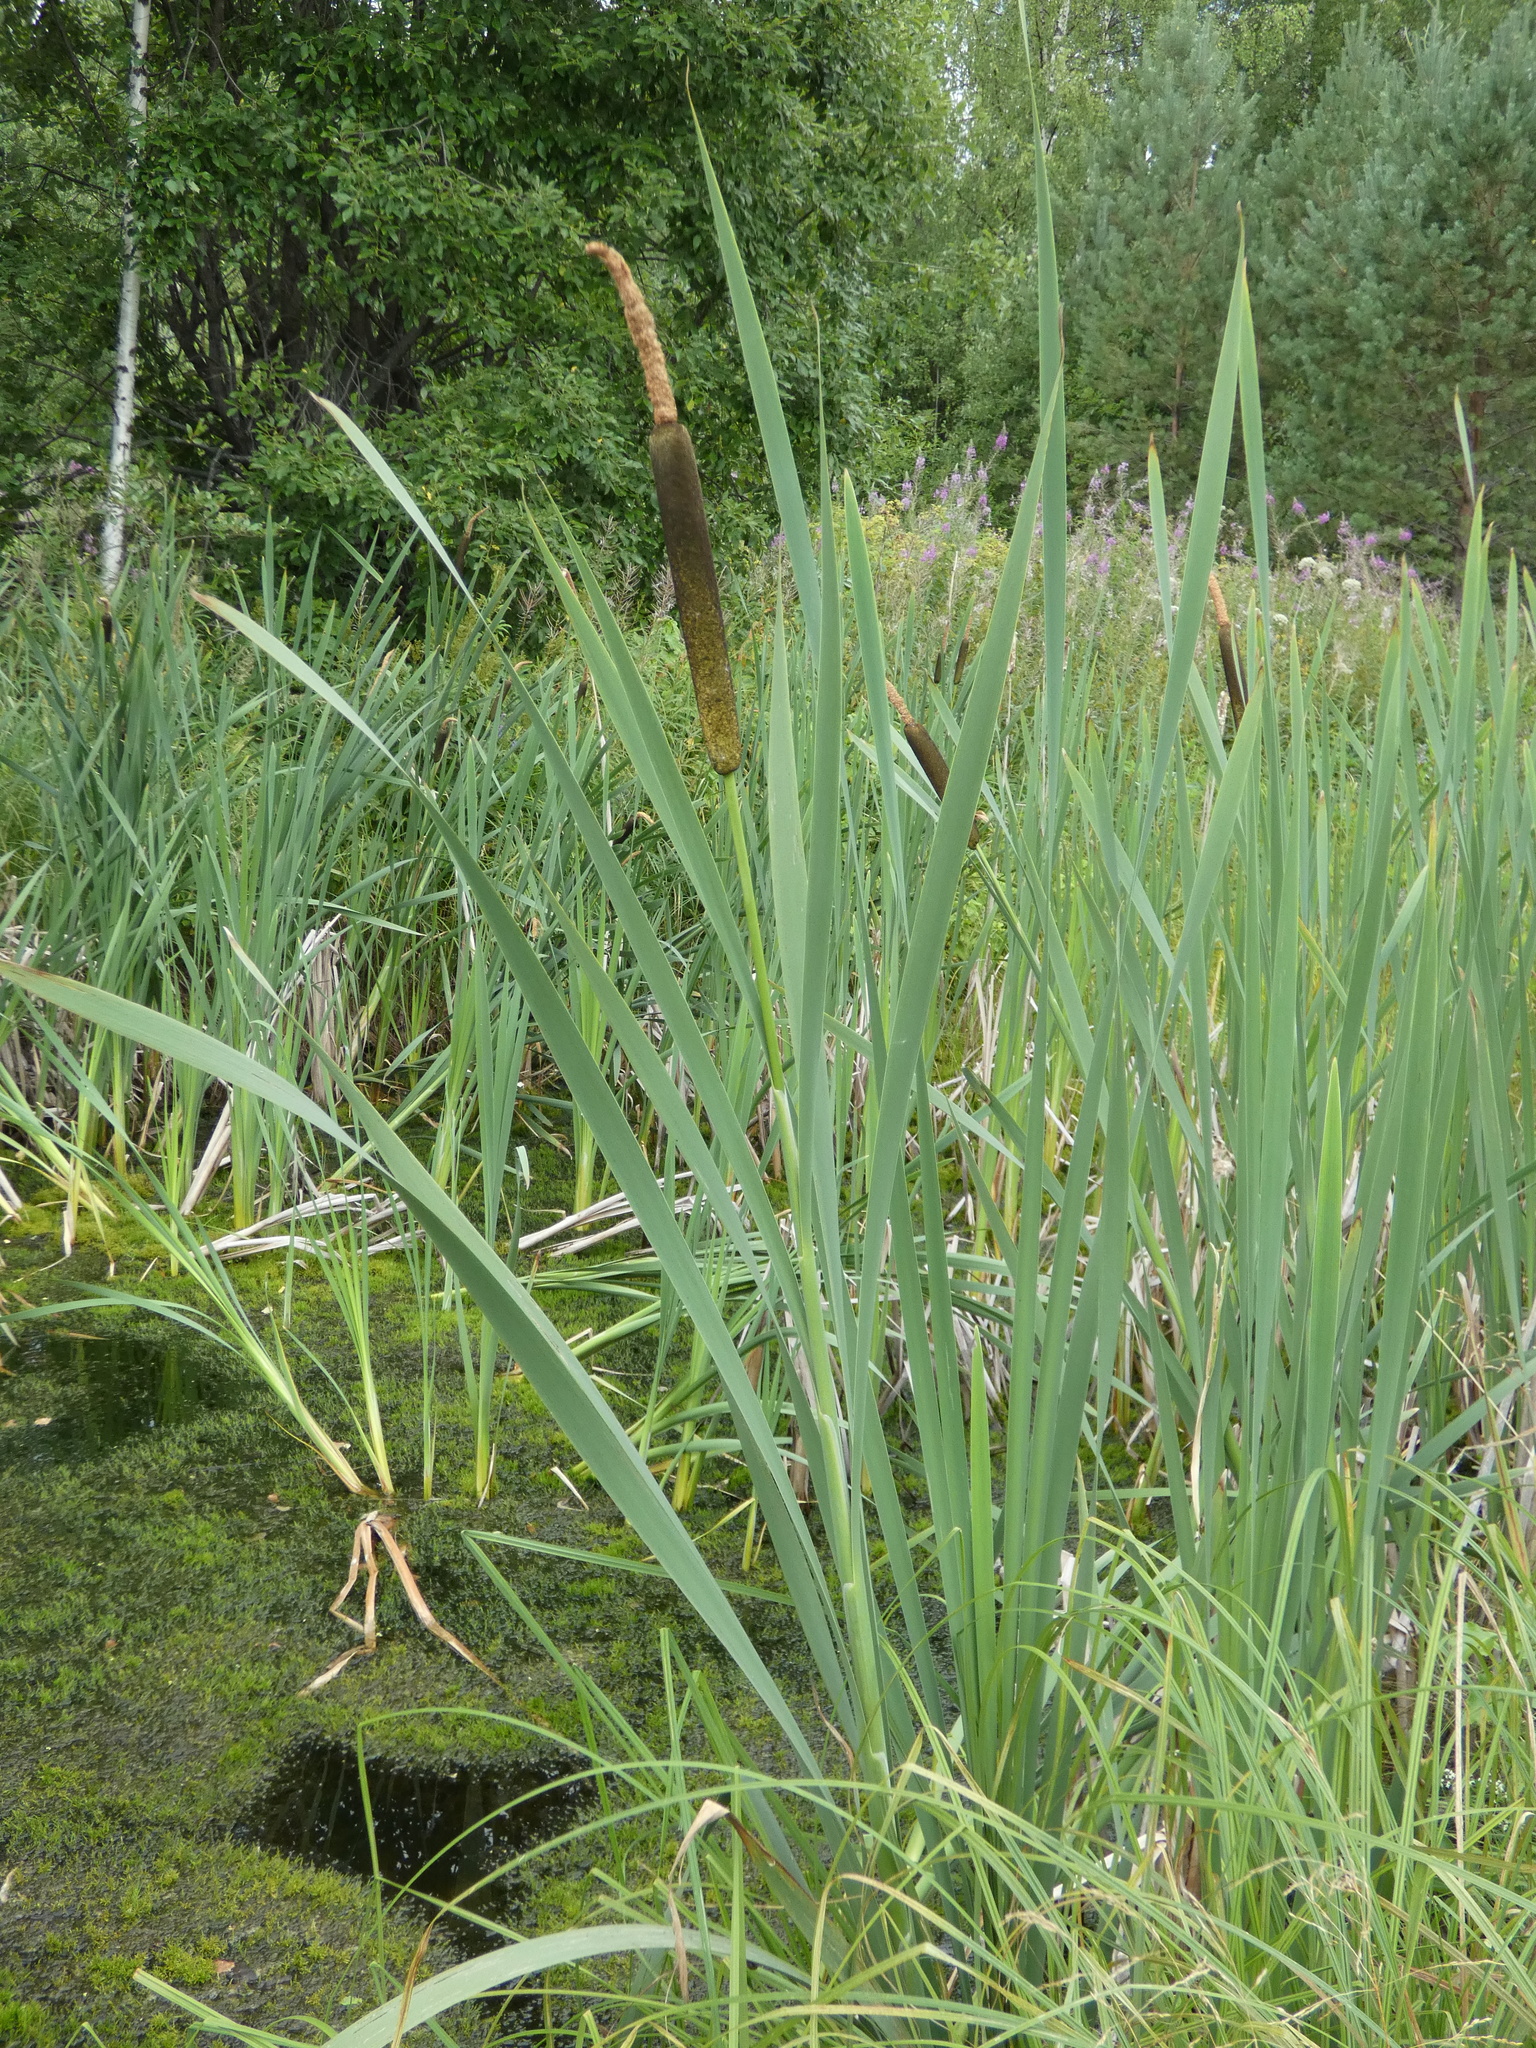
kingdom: Plantae
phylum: Tracheophyta
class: Liliopsida
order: Poales
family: Typhaceae
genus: Typha
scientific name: Typha latifolia
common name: Broadleaf cattail
